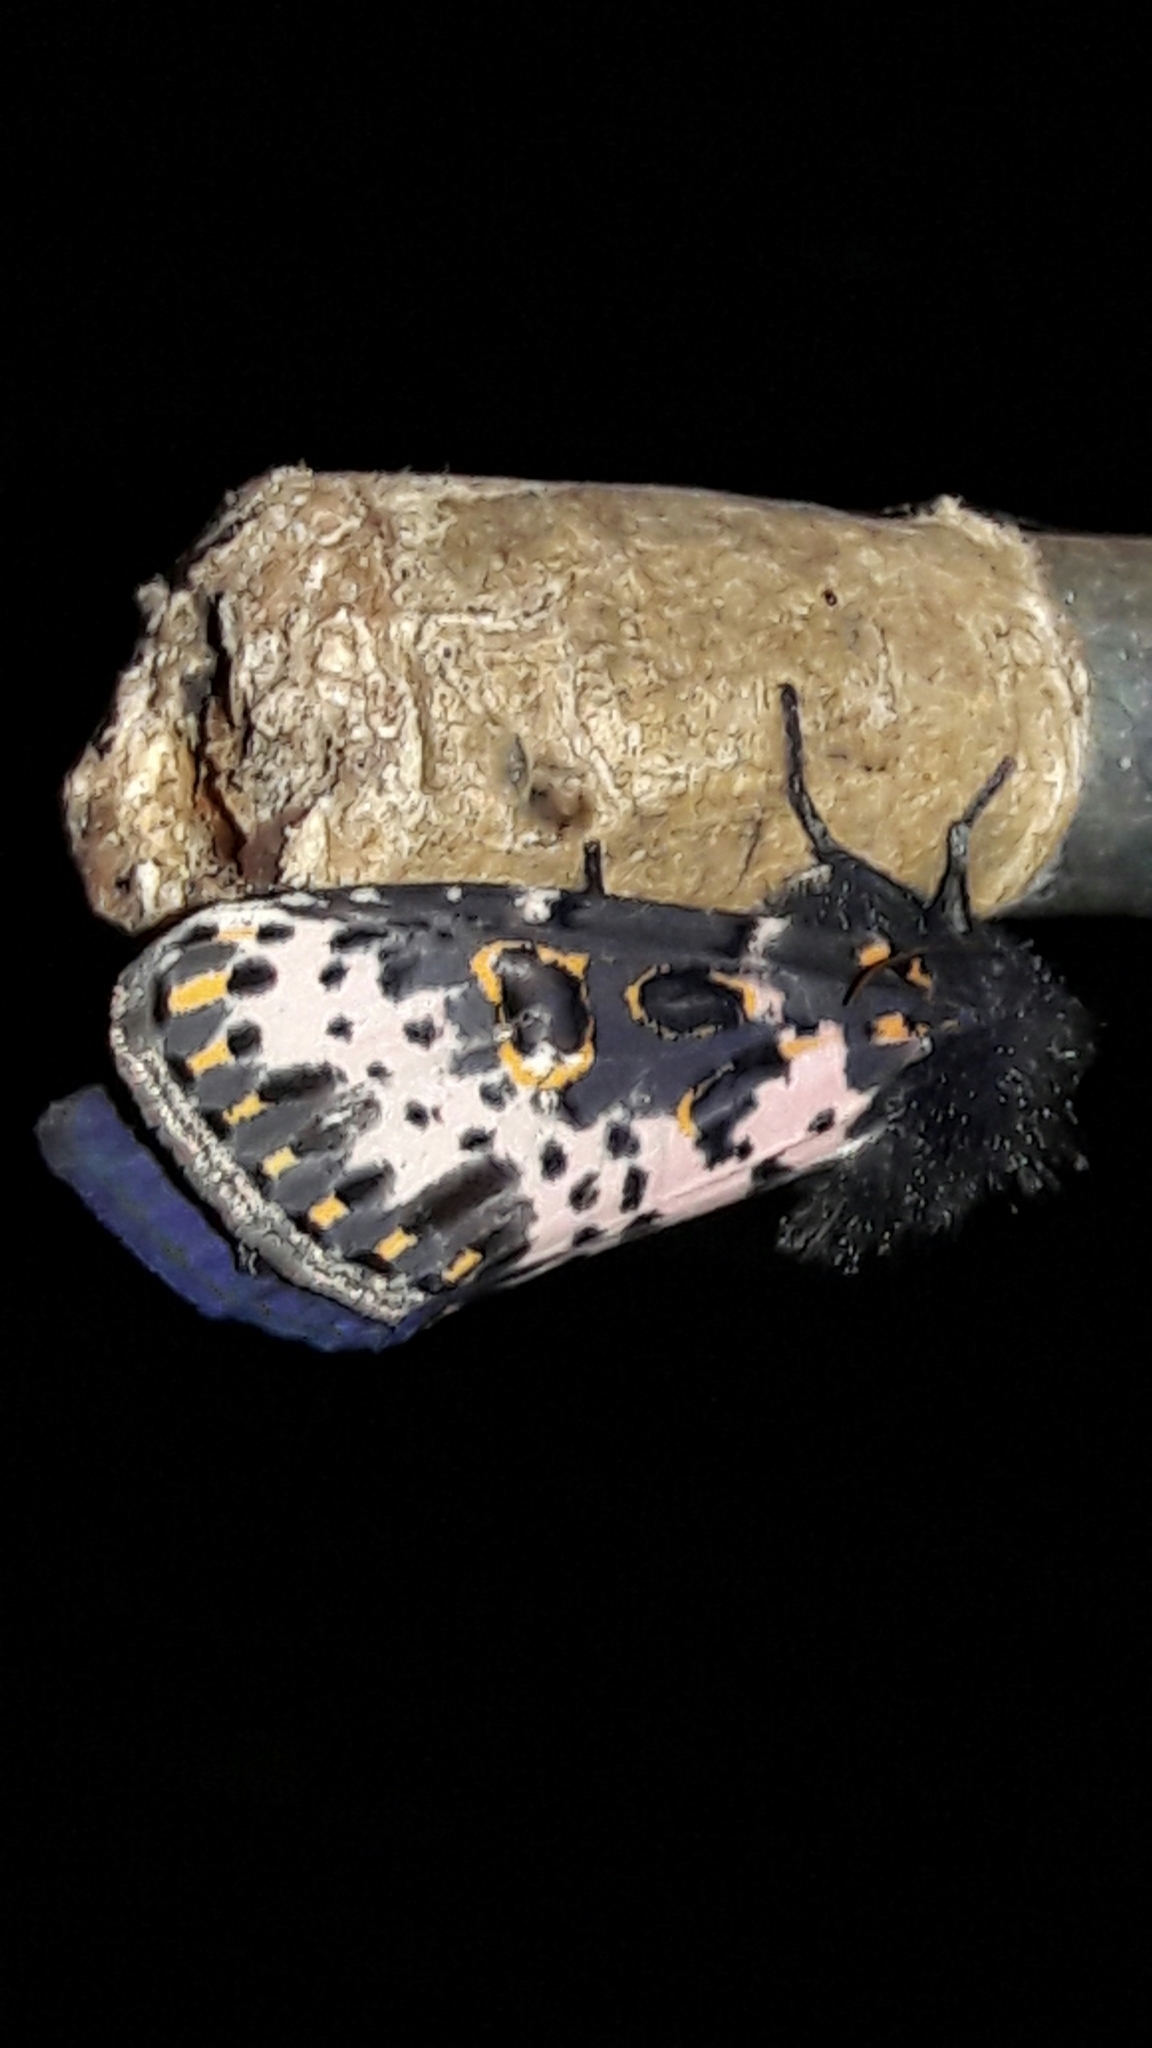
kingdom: Animalia
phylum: Arthropoda
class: Insecta
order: Lepidoptera
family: Noctuidae
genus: Xanthopastis
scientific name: Xanthopastis timais
